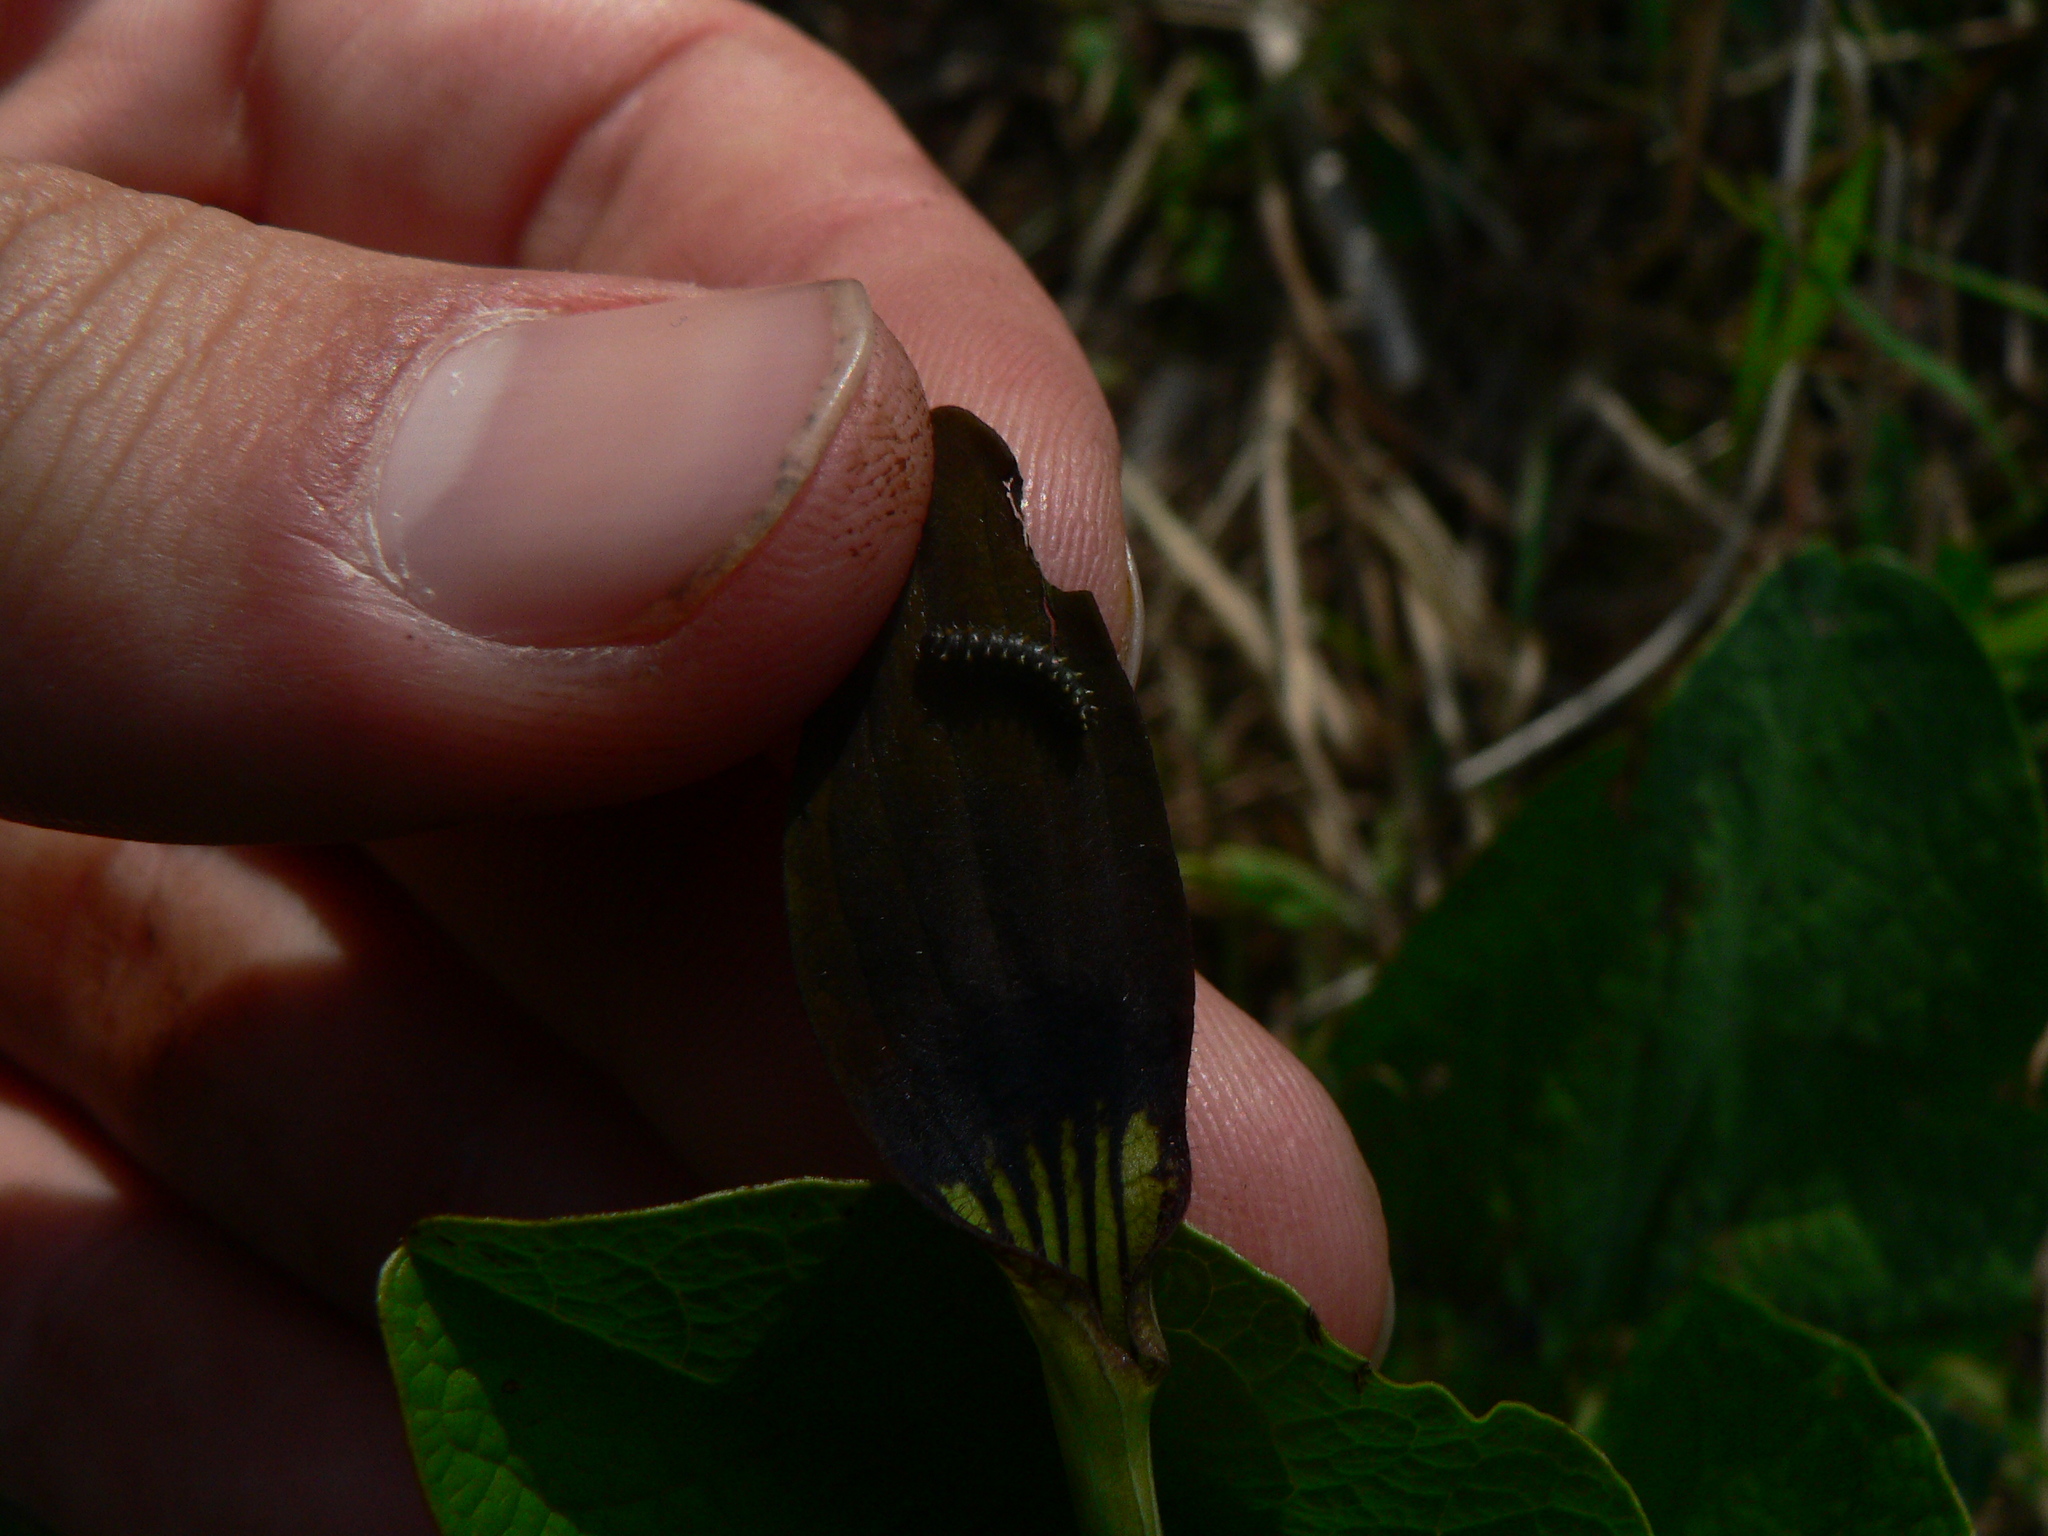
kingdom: Animalia
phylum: Arthropoda
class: Insecta
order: Lepidoptera
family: Papilionidae
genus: Zerynthia
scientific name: Zerynthia polyxena
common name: Southern festoon
